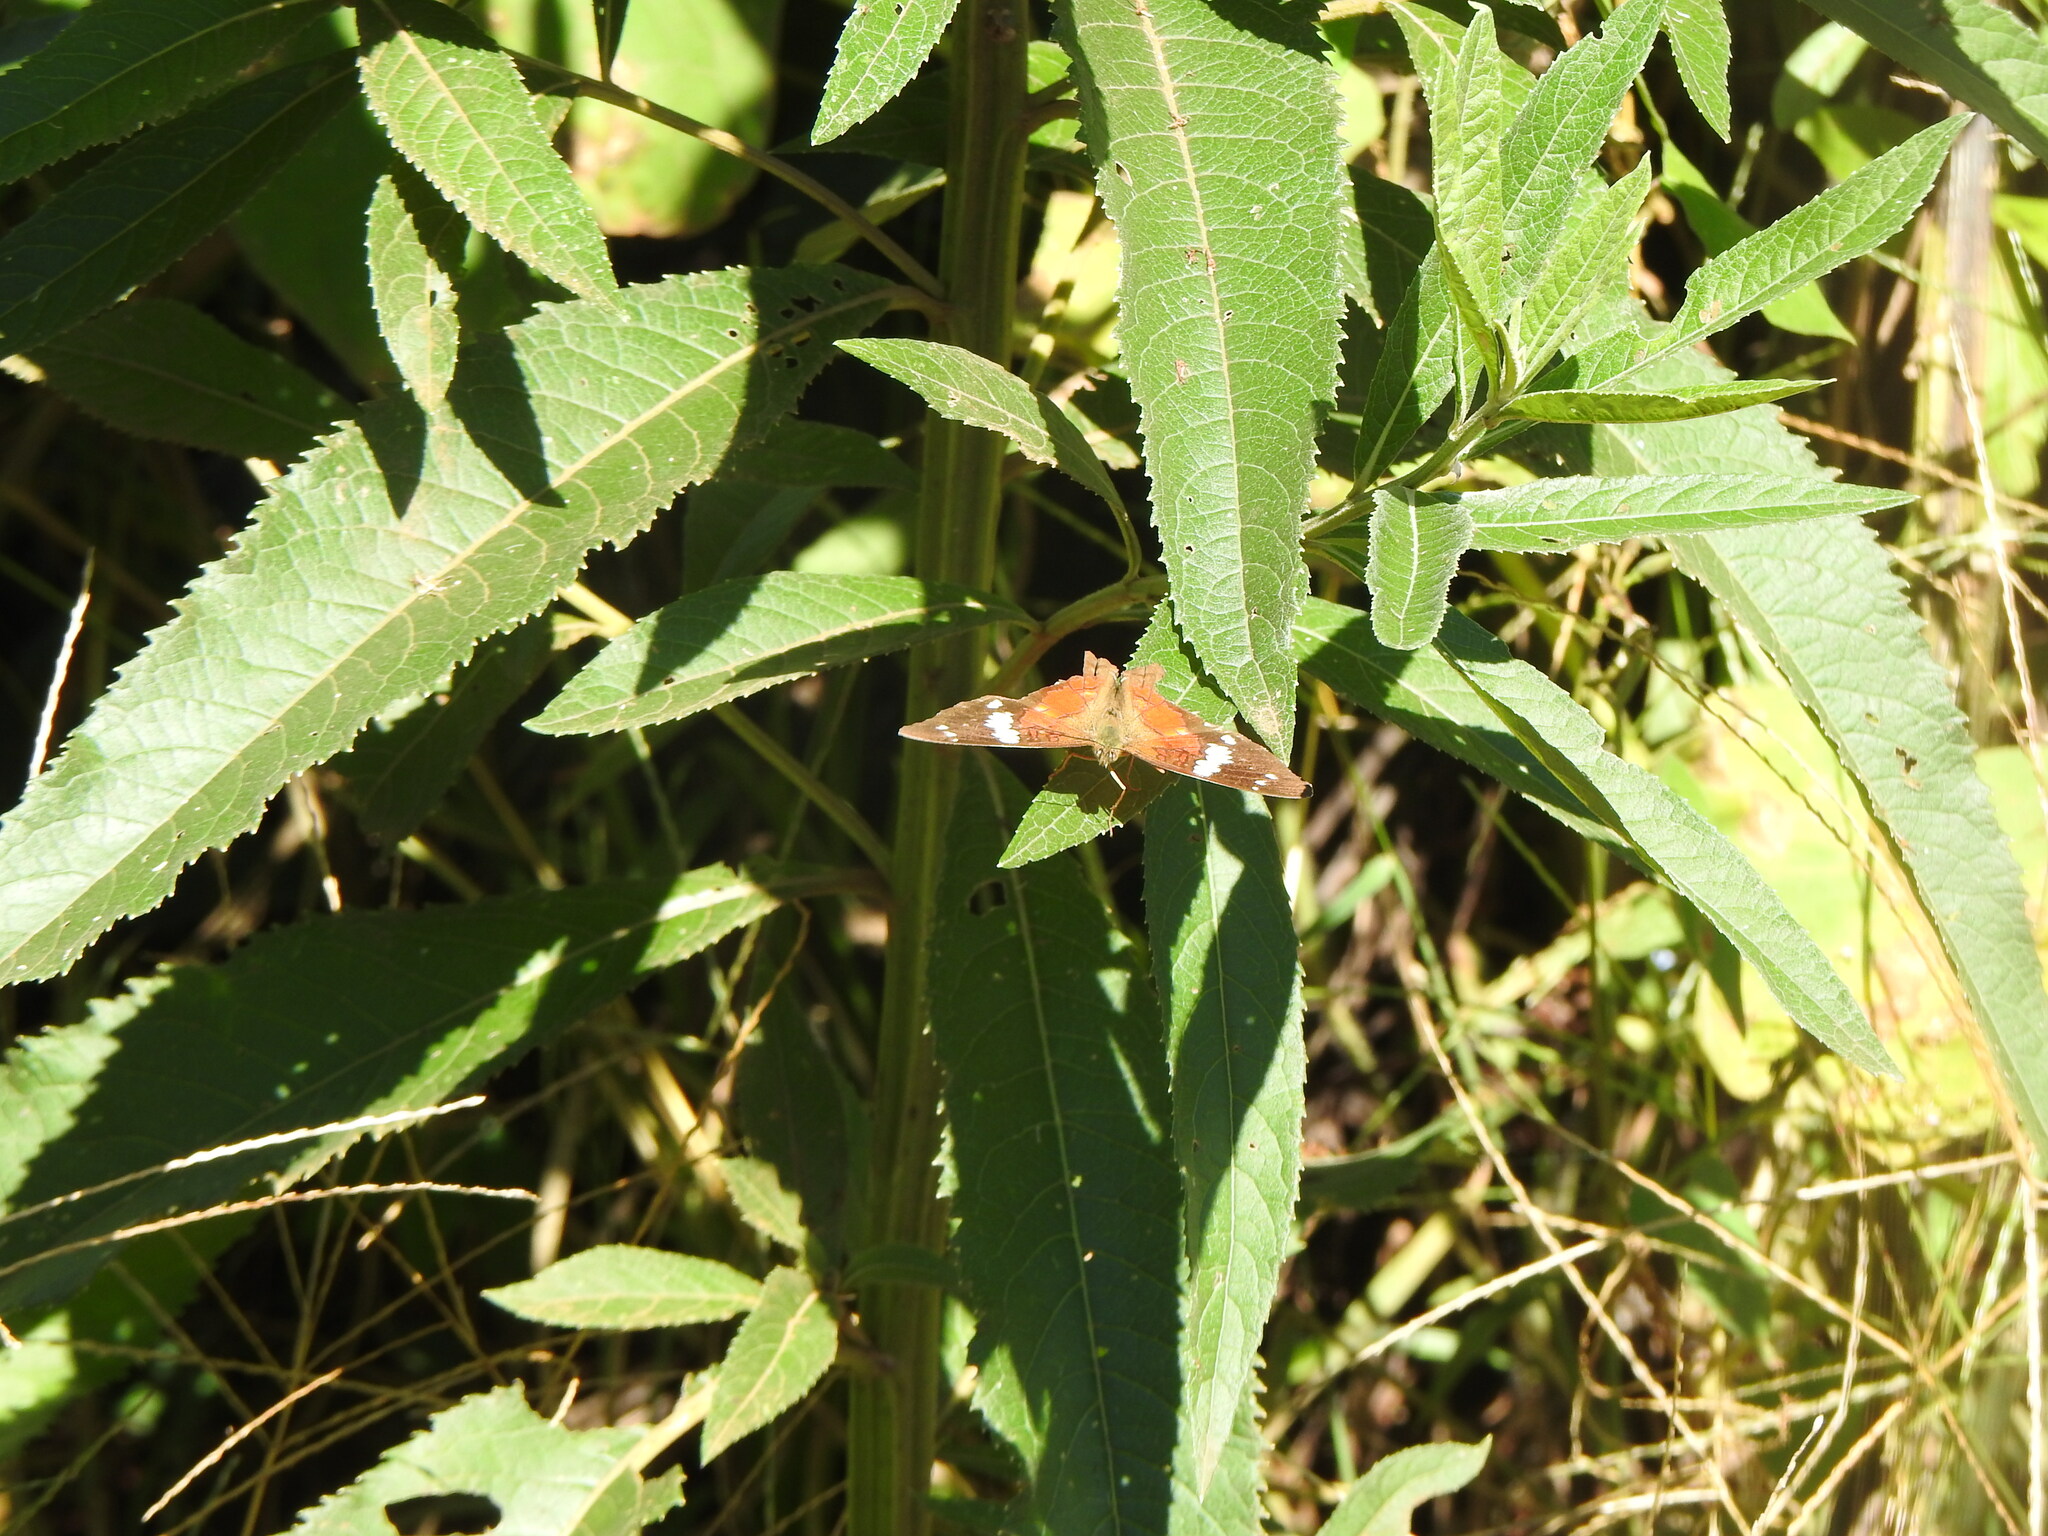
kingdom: Animalia
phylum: Arthropoda
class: Insecta
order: Lepidoptera
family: Nymphalidae
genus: Anartia
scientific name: Anartia amathea
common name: Red peacock
